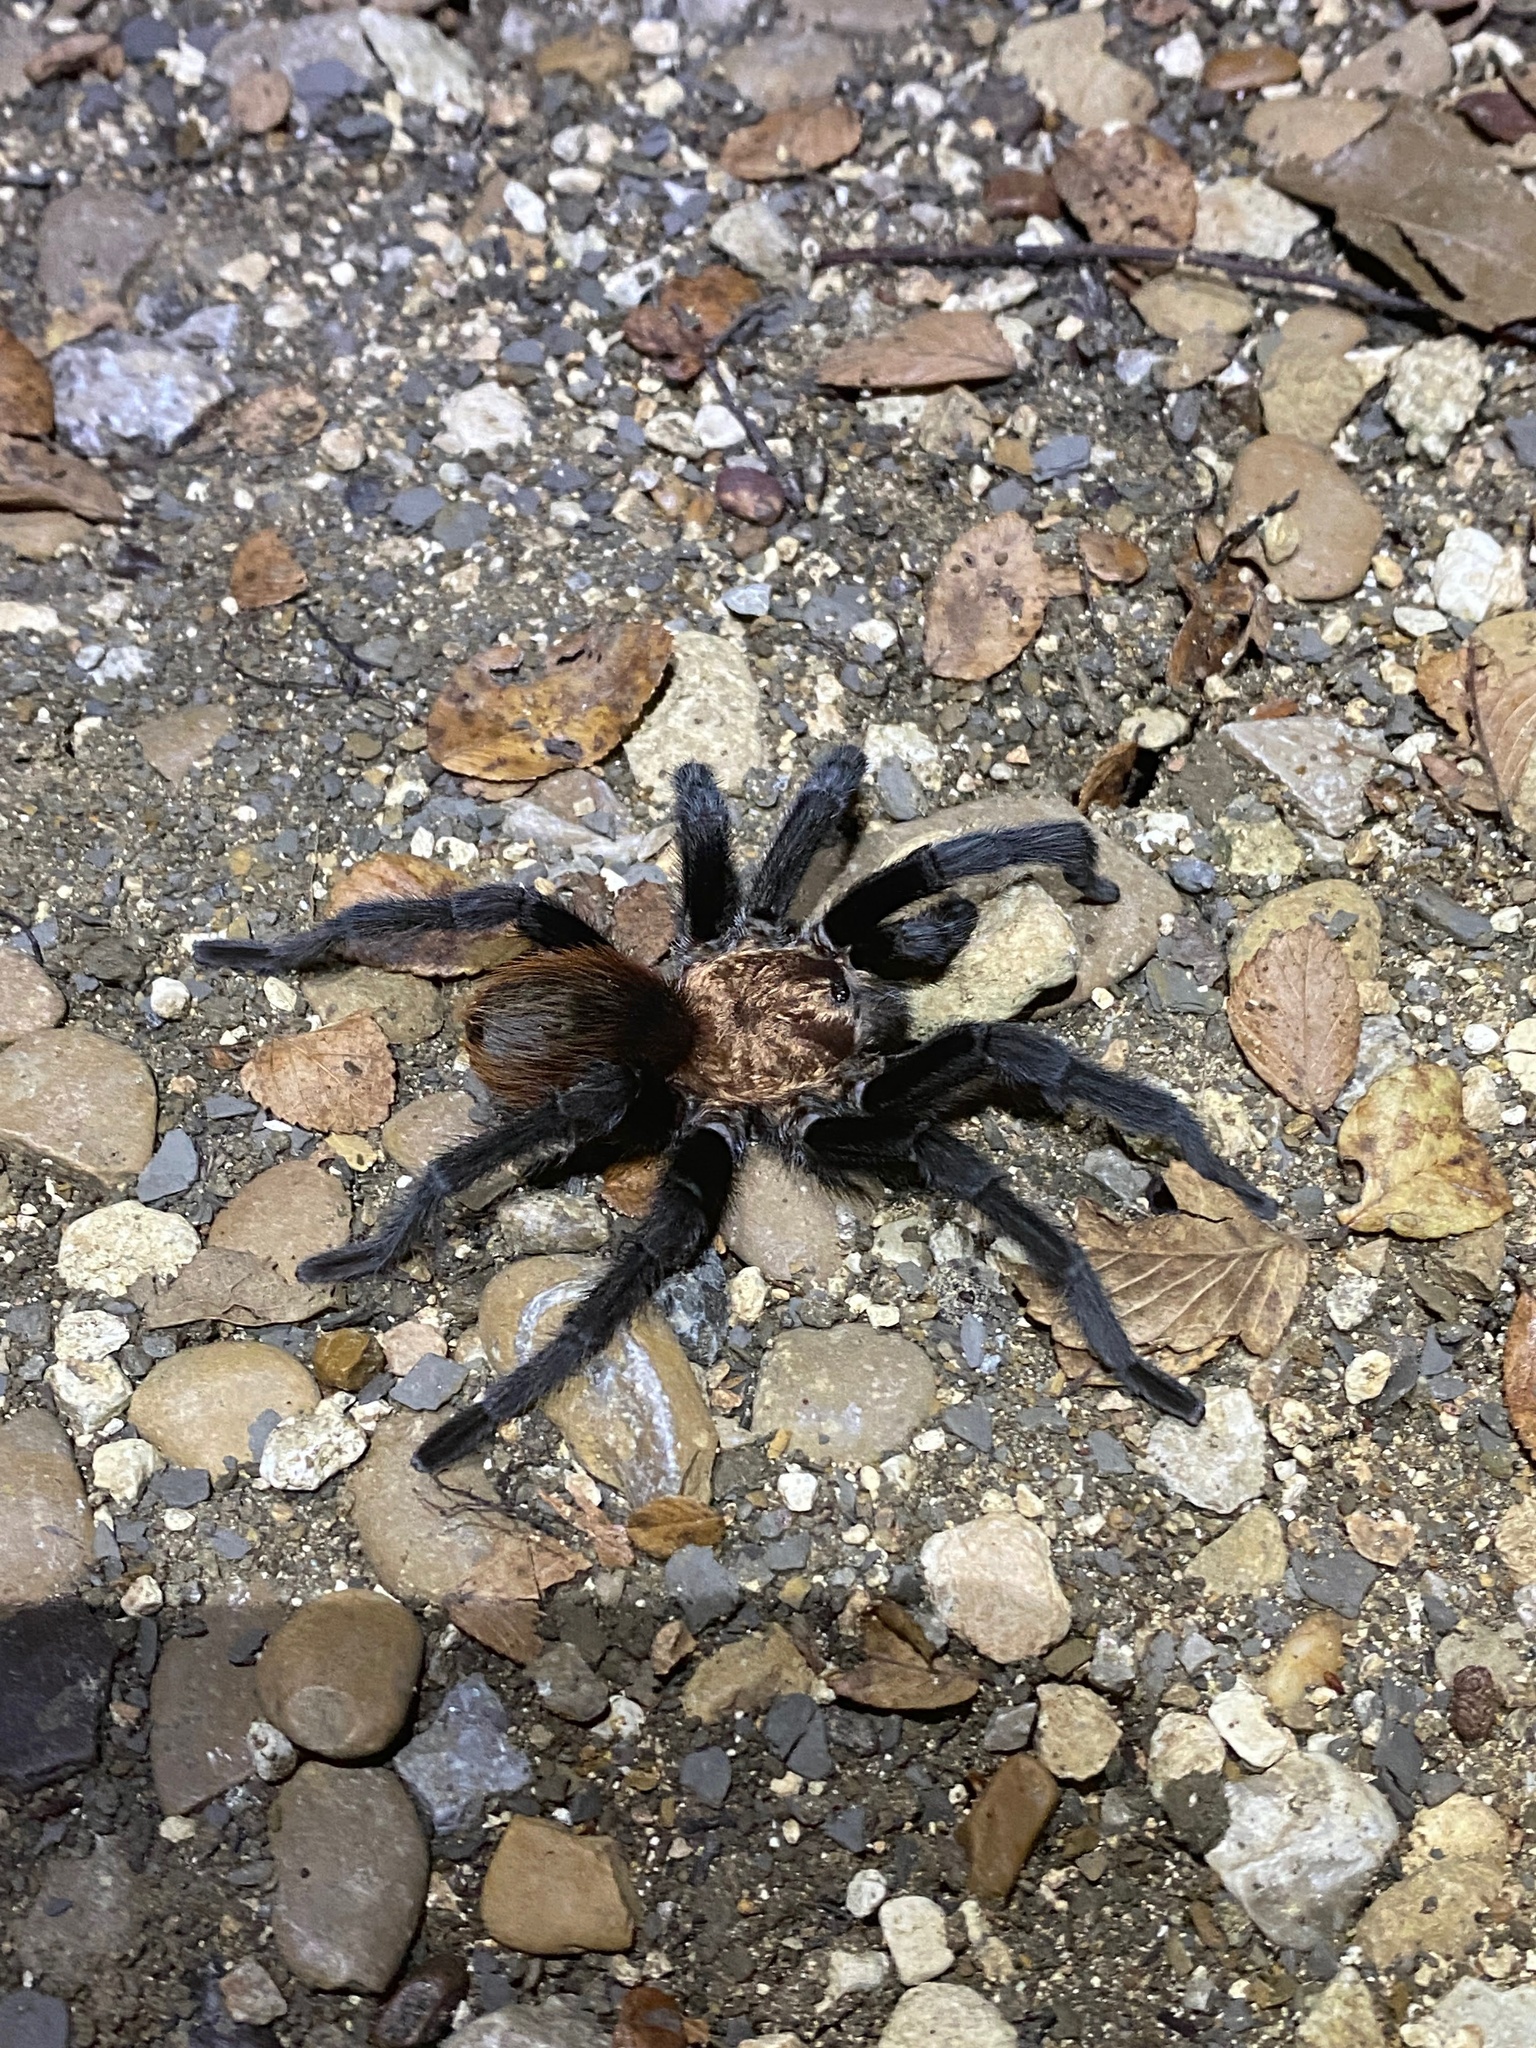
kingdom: Animalia
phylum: Arthropoda
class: Arachnida
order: Araneae
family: Theraphosidae
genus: Aphonopelma
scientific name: Aphonopelma hentzi
